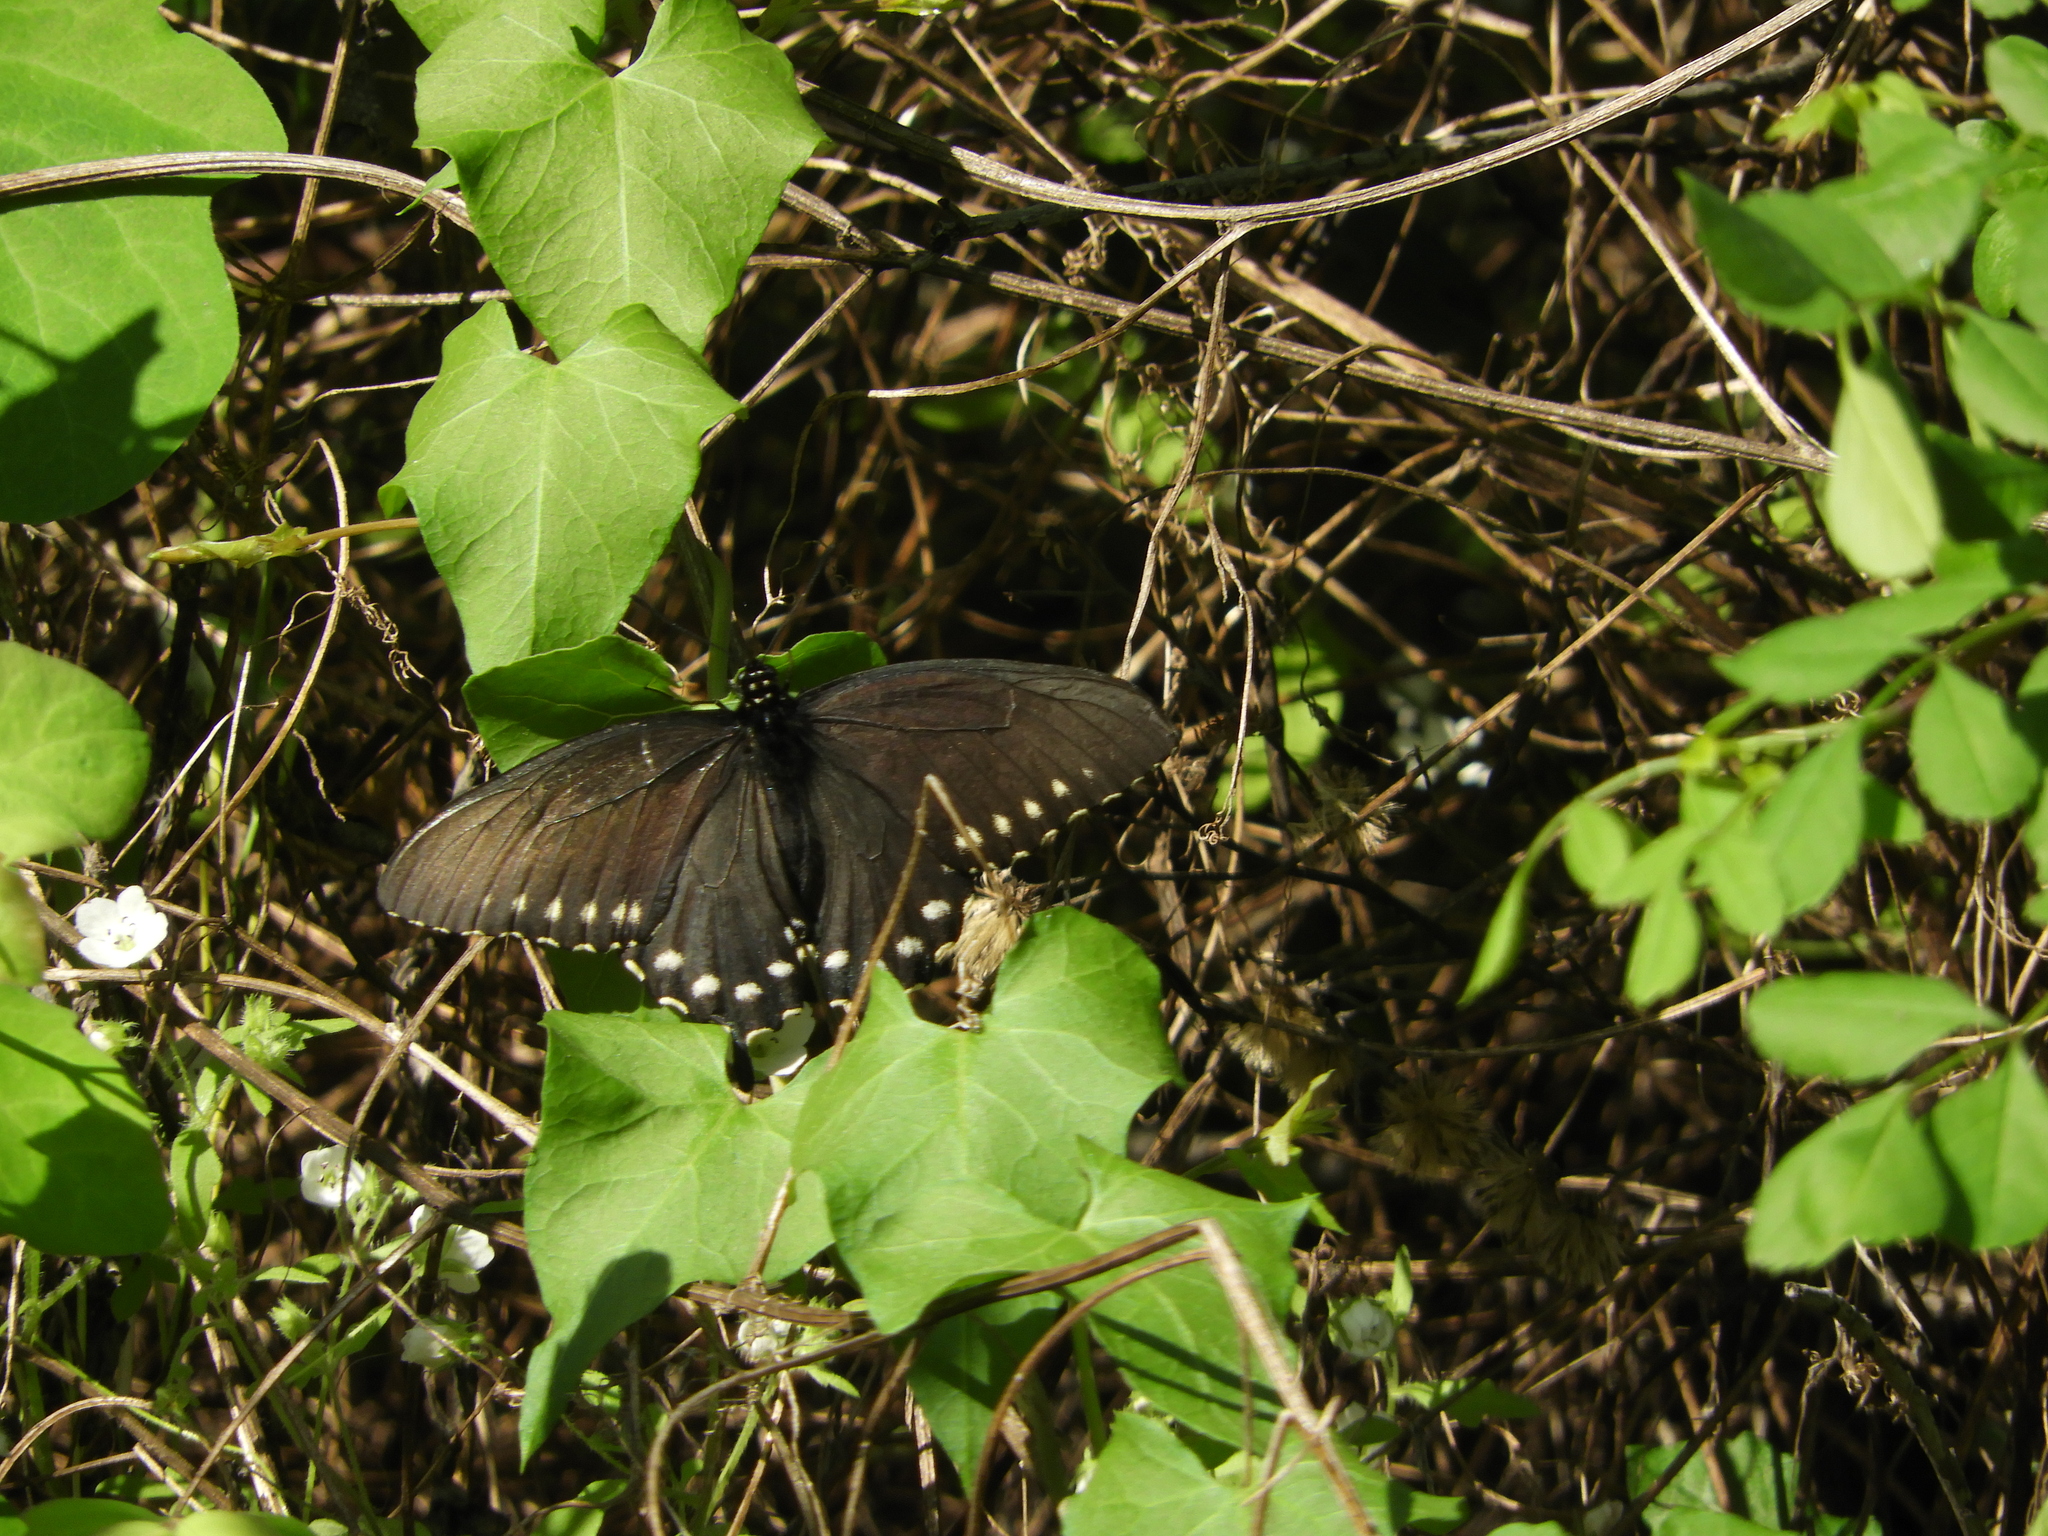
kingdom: Animalia
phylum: Arthropoda
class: Insecta
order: Lepidoptera
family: Papilionidae
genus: Battus
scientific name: Battus philenor
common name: Pipevine swallowtail
